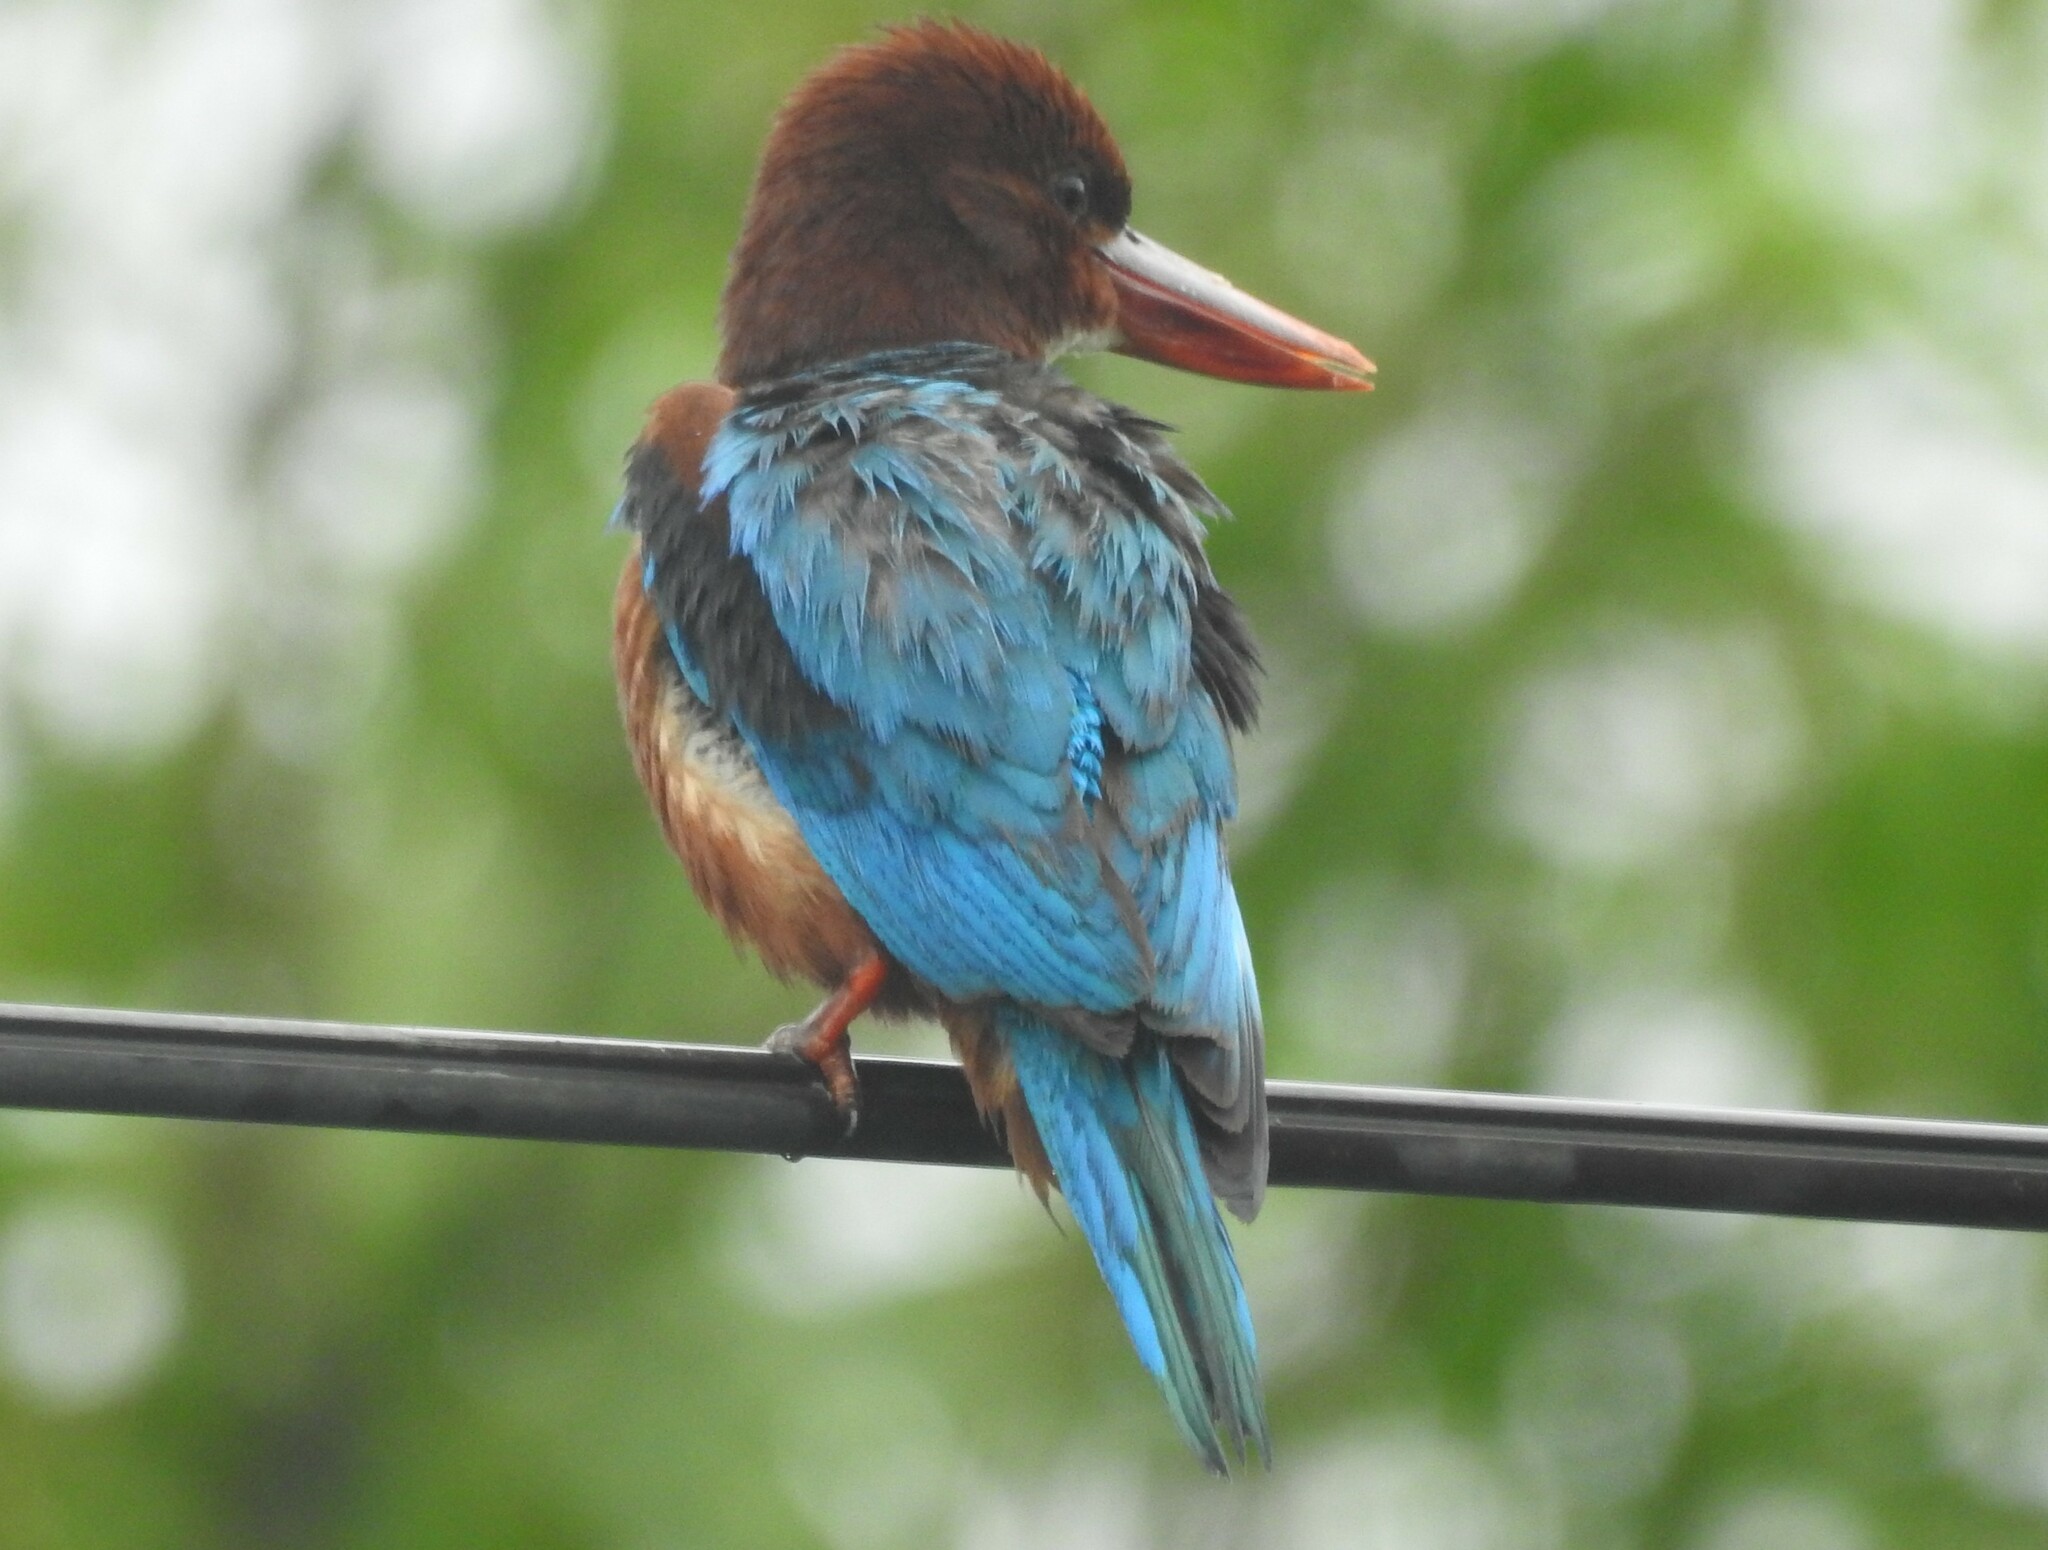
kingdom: Animalia
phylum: Chordata
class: Aves
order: Coraciiformes
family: Alcedinidae
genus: Halcyon
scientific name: Halcyon smyrnensis
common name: White-throated kingfisher
